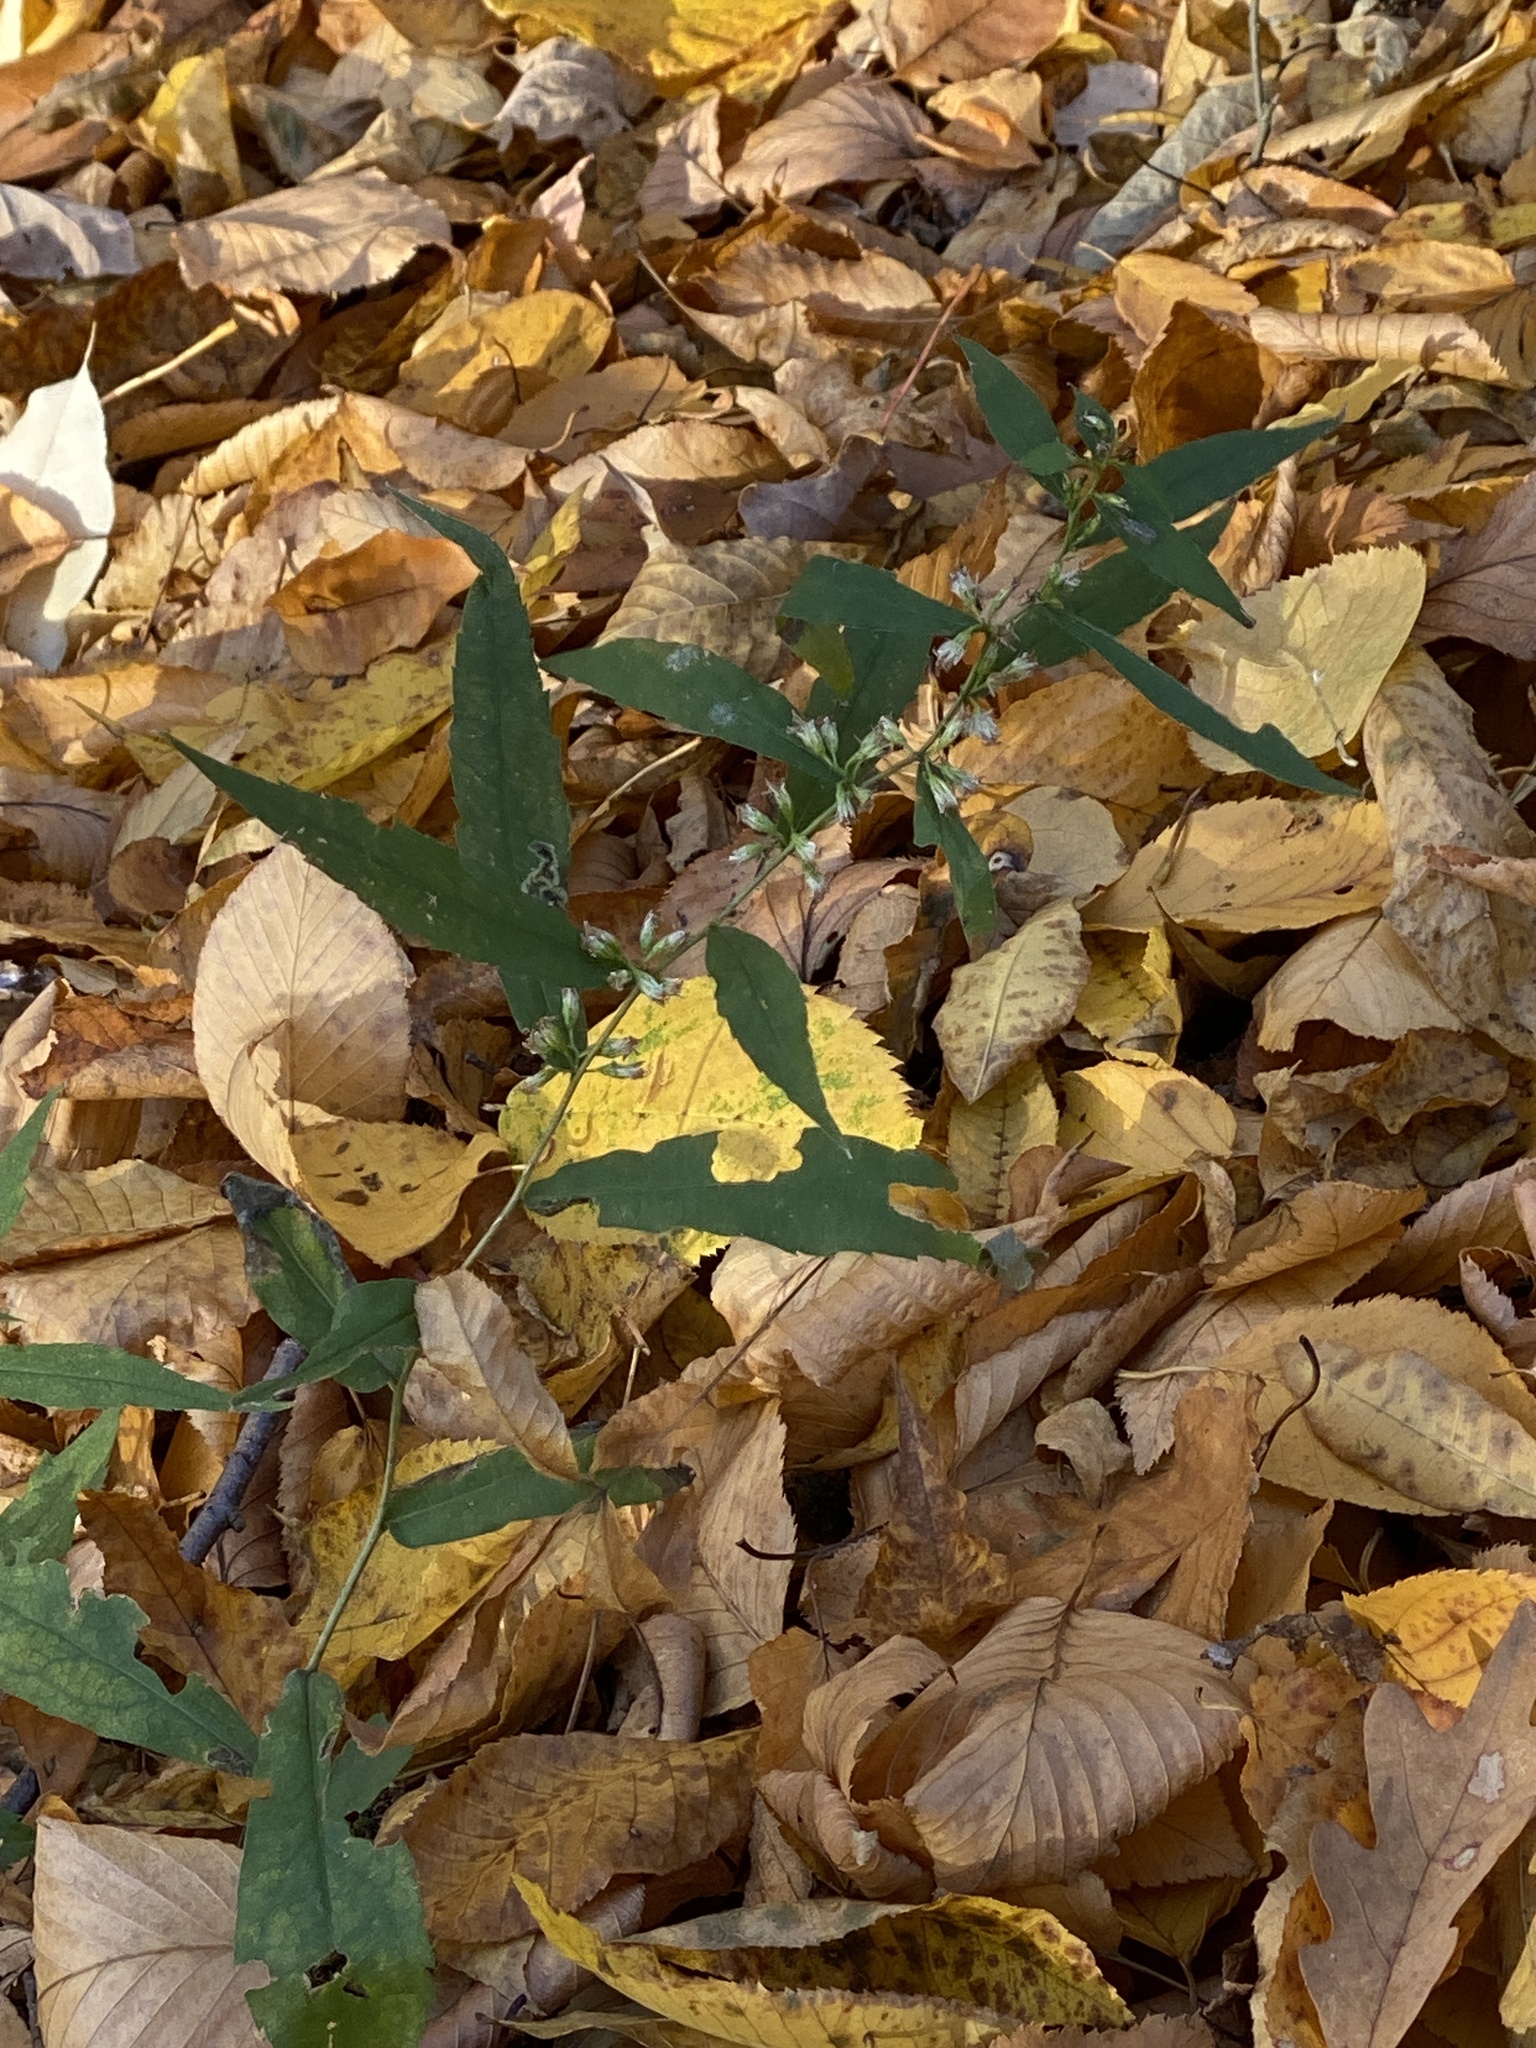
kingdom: Plantae
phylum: Tracheophyta
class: Magnoliopsida
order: Asterales
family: Asteraceae
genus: Solidago
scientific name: Solidago caesia
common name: Woodland goldenrod
